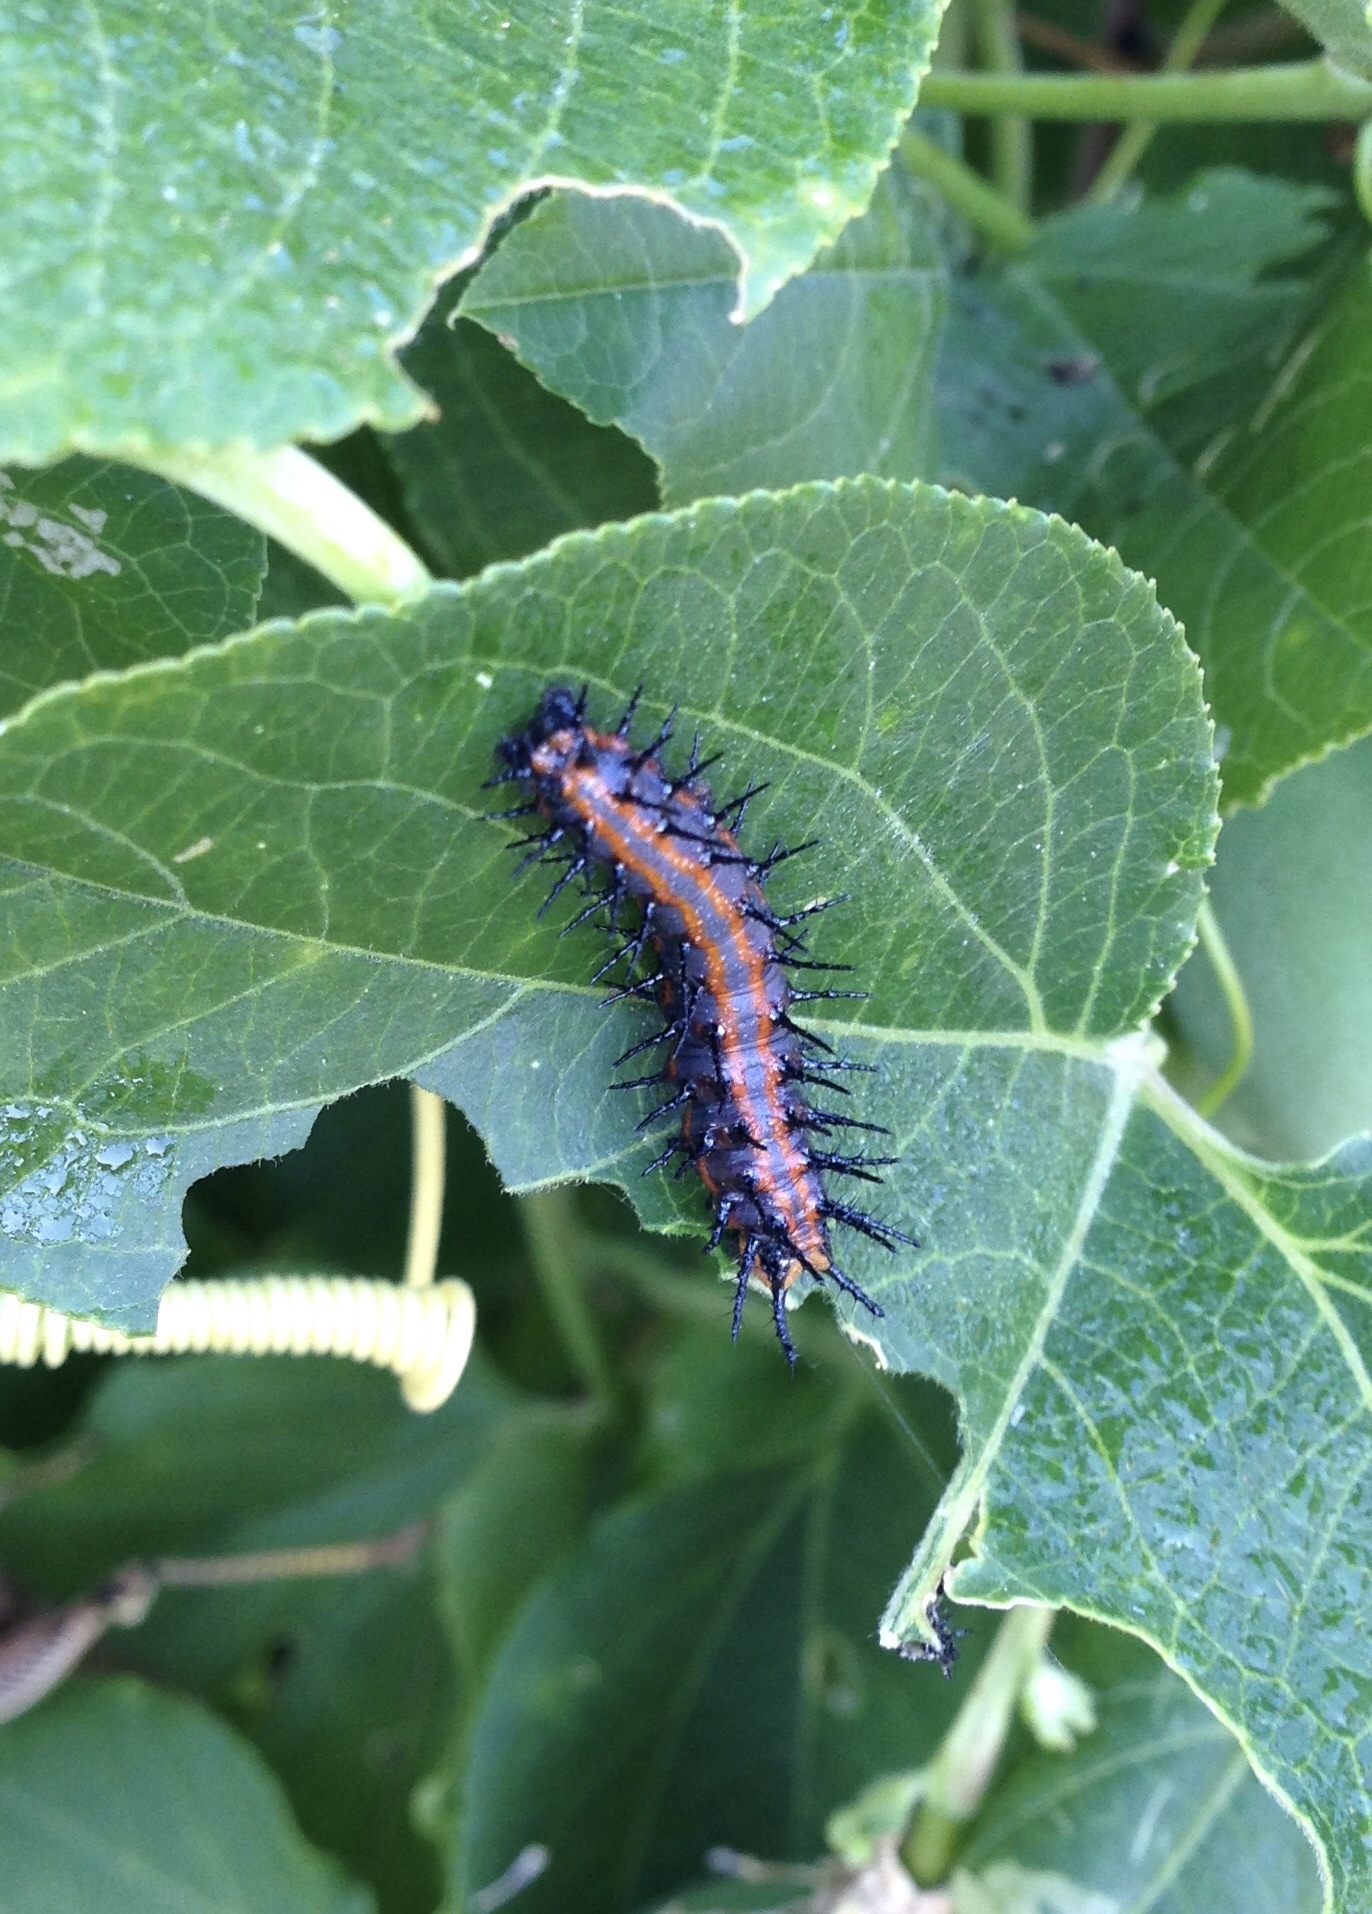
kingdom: Animalia
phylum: Arthropoda
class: Insecta
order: Lepidoptera
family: Nymphalidae
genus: Dione
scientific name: Dione vanillae
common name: Gulf fritillary
